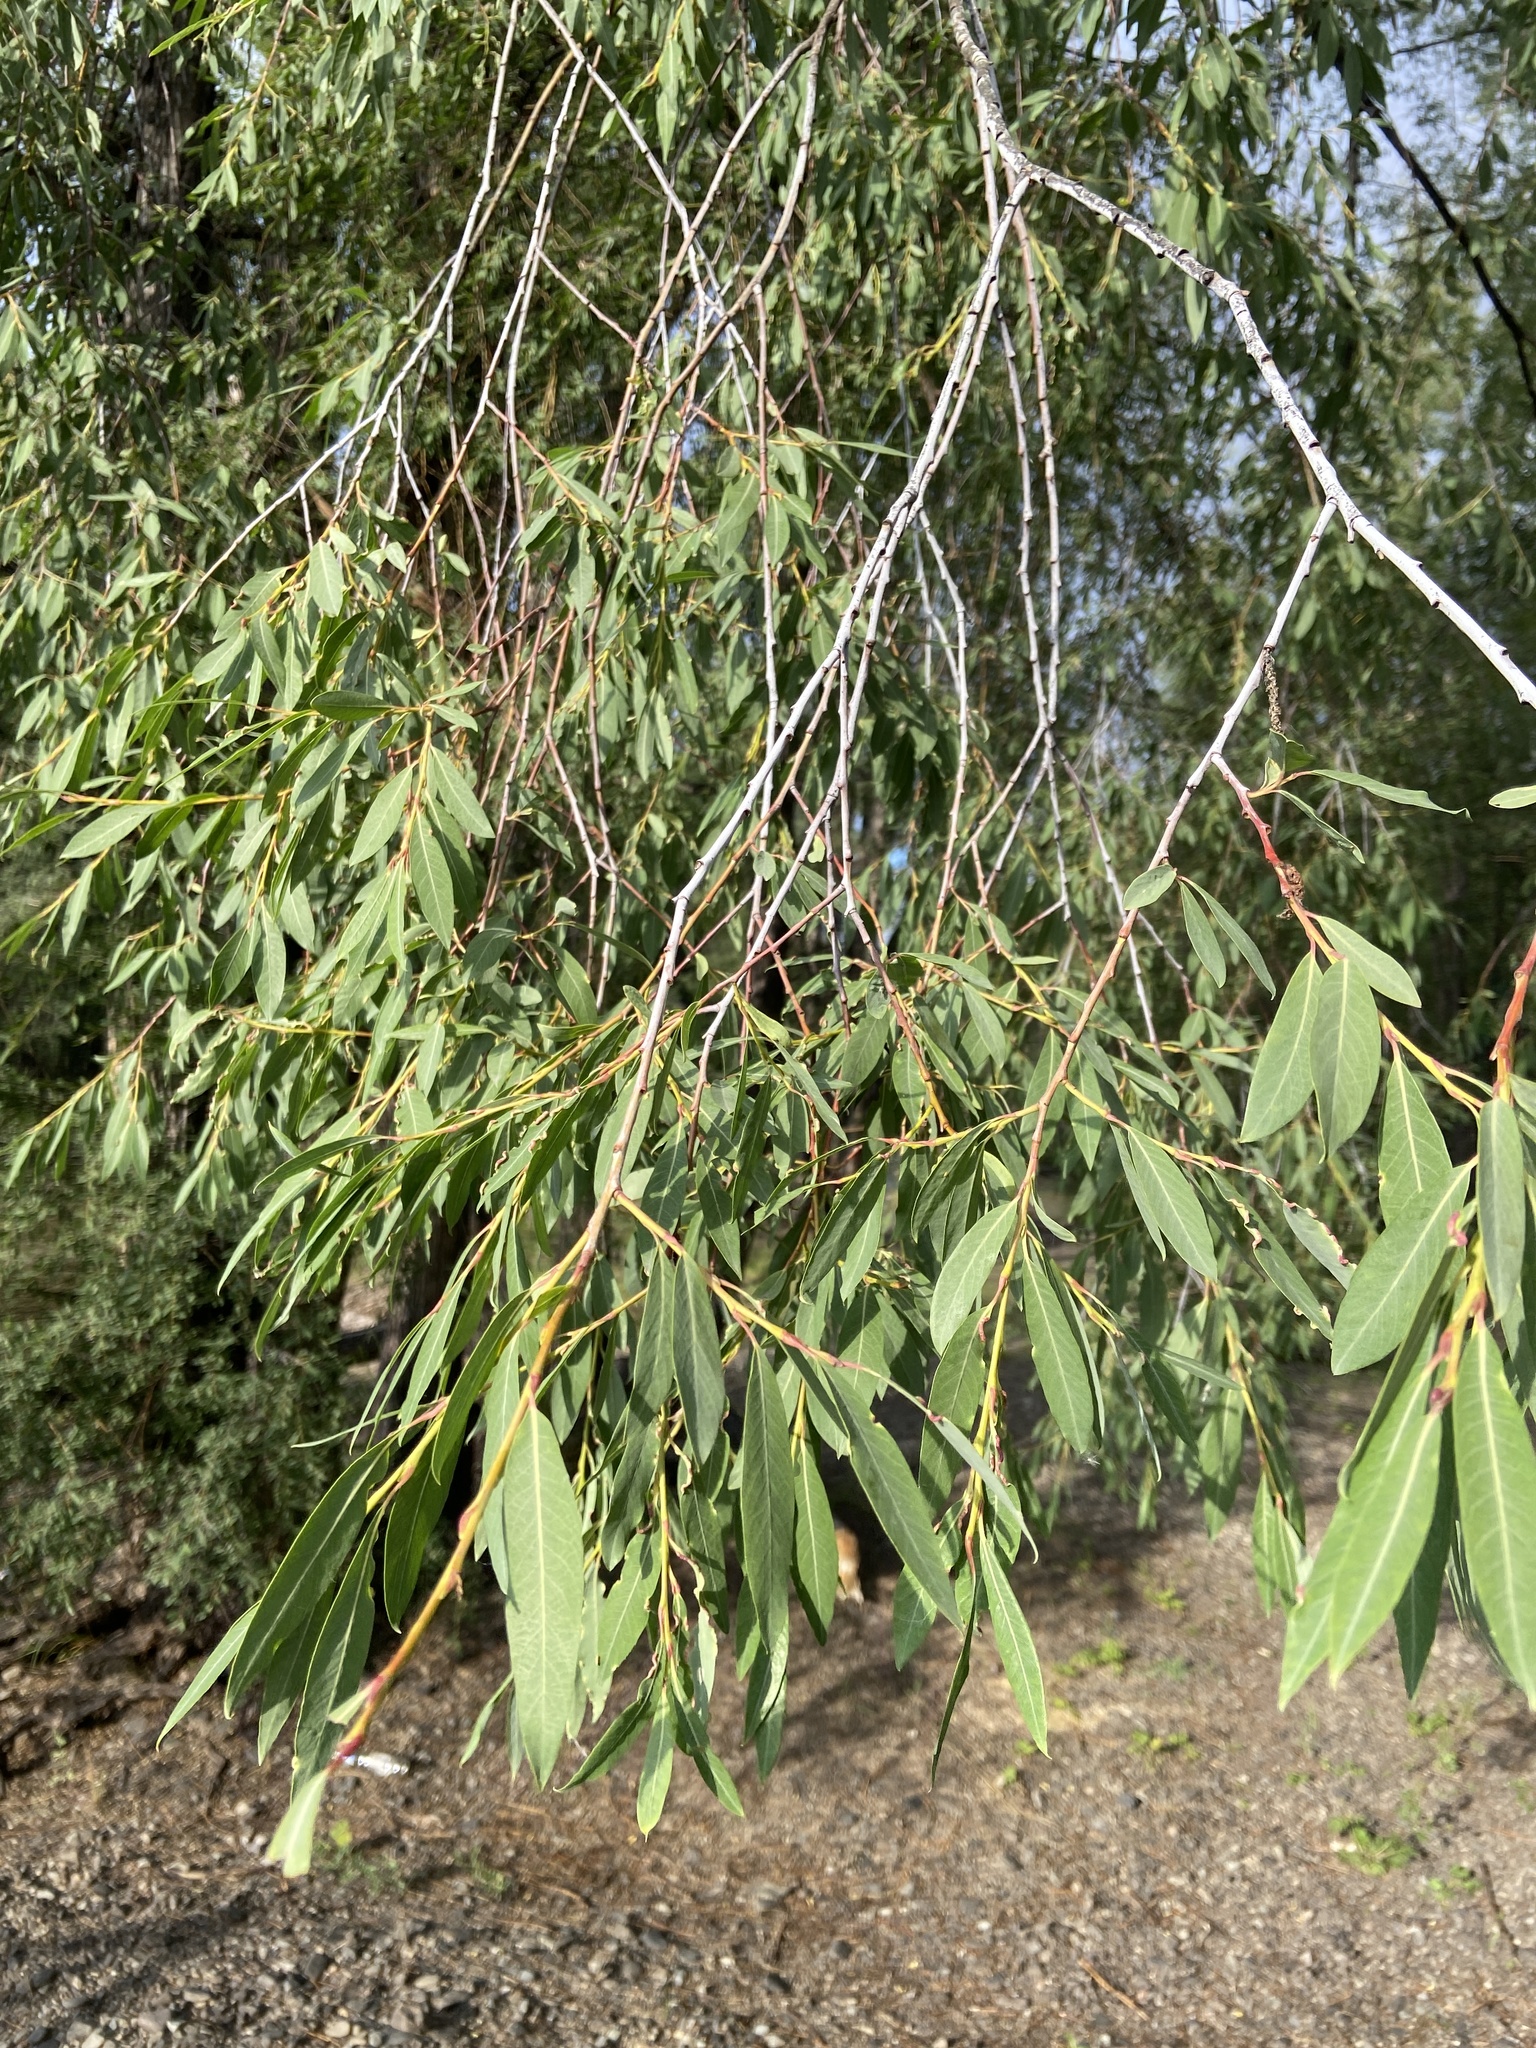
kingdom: Plantae
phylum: Tracheophyta
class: Magnoliopsida
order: Malpighiales
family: Salicaceae
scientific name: Salicaceae
